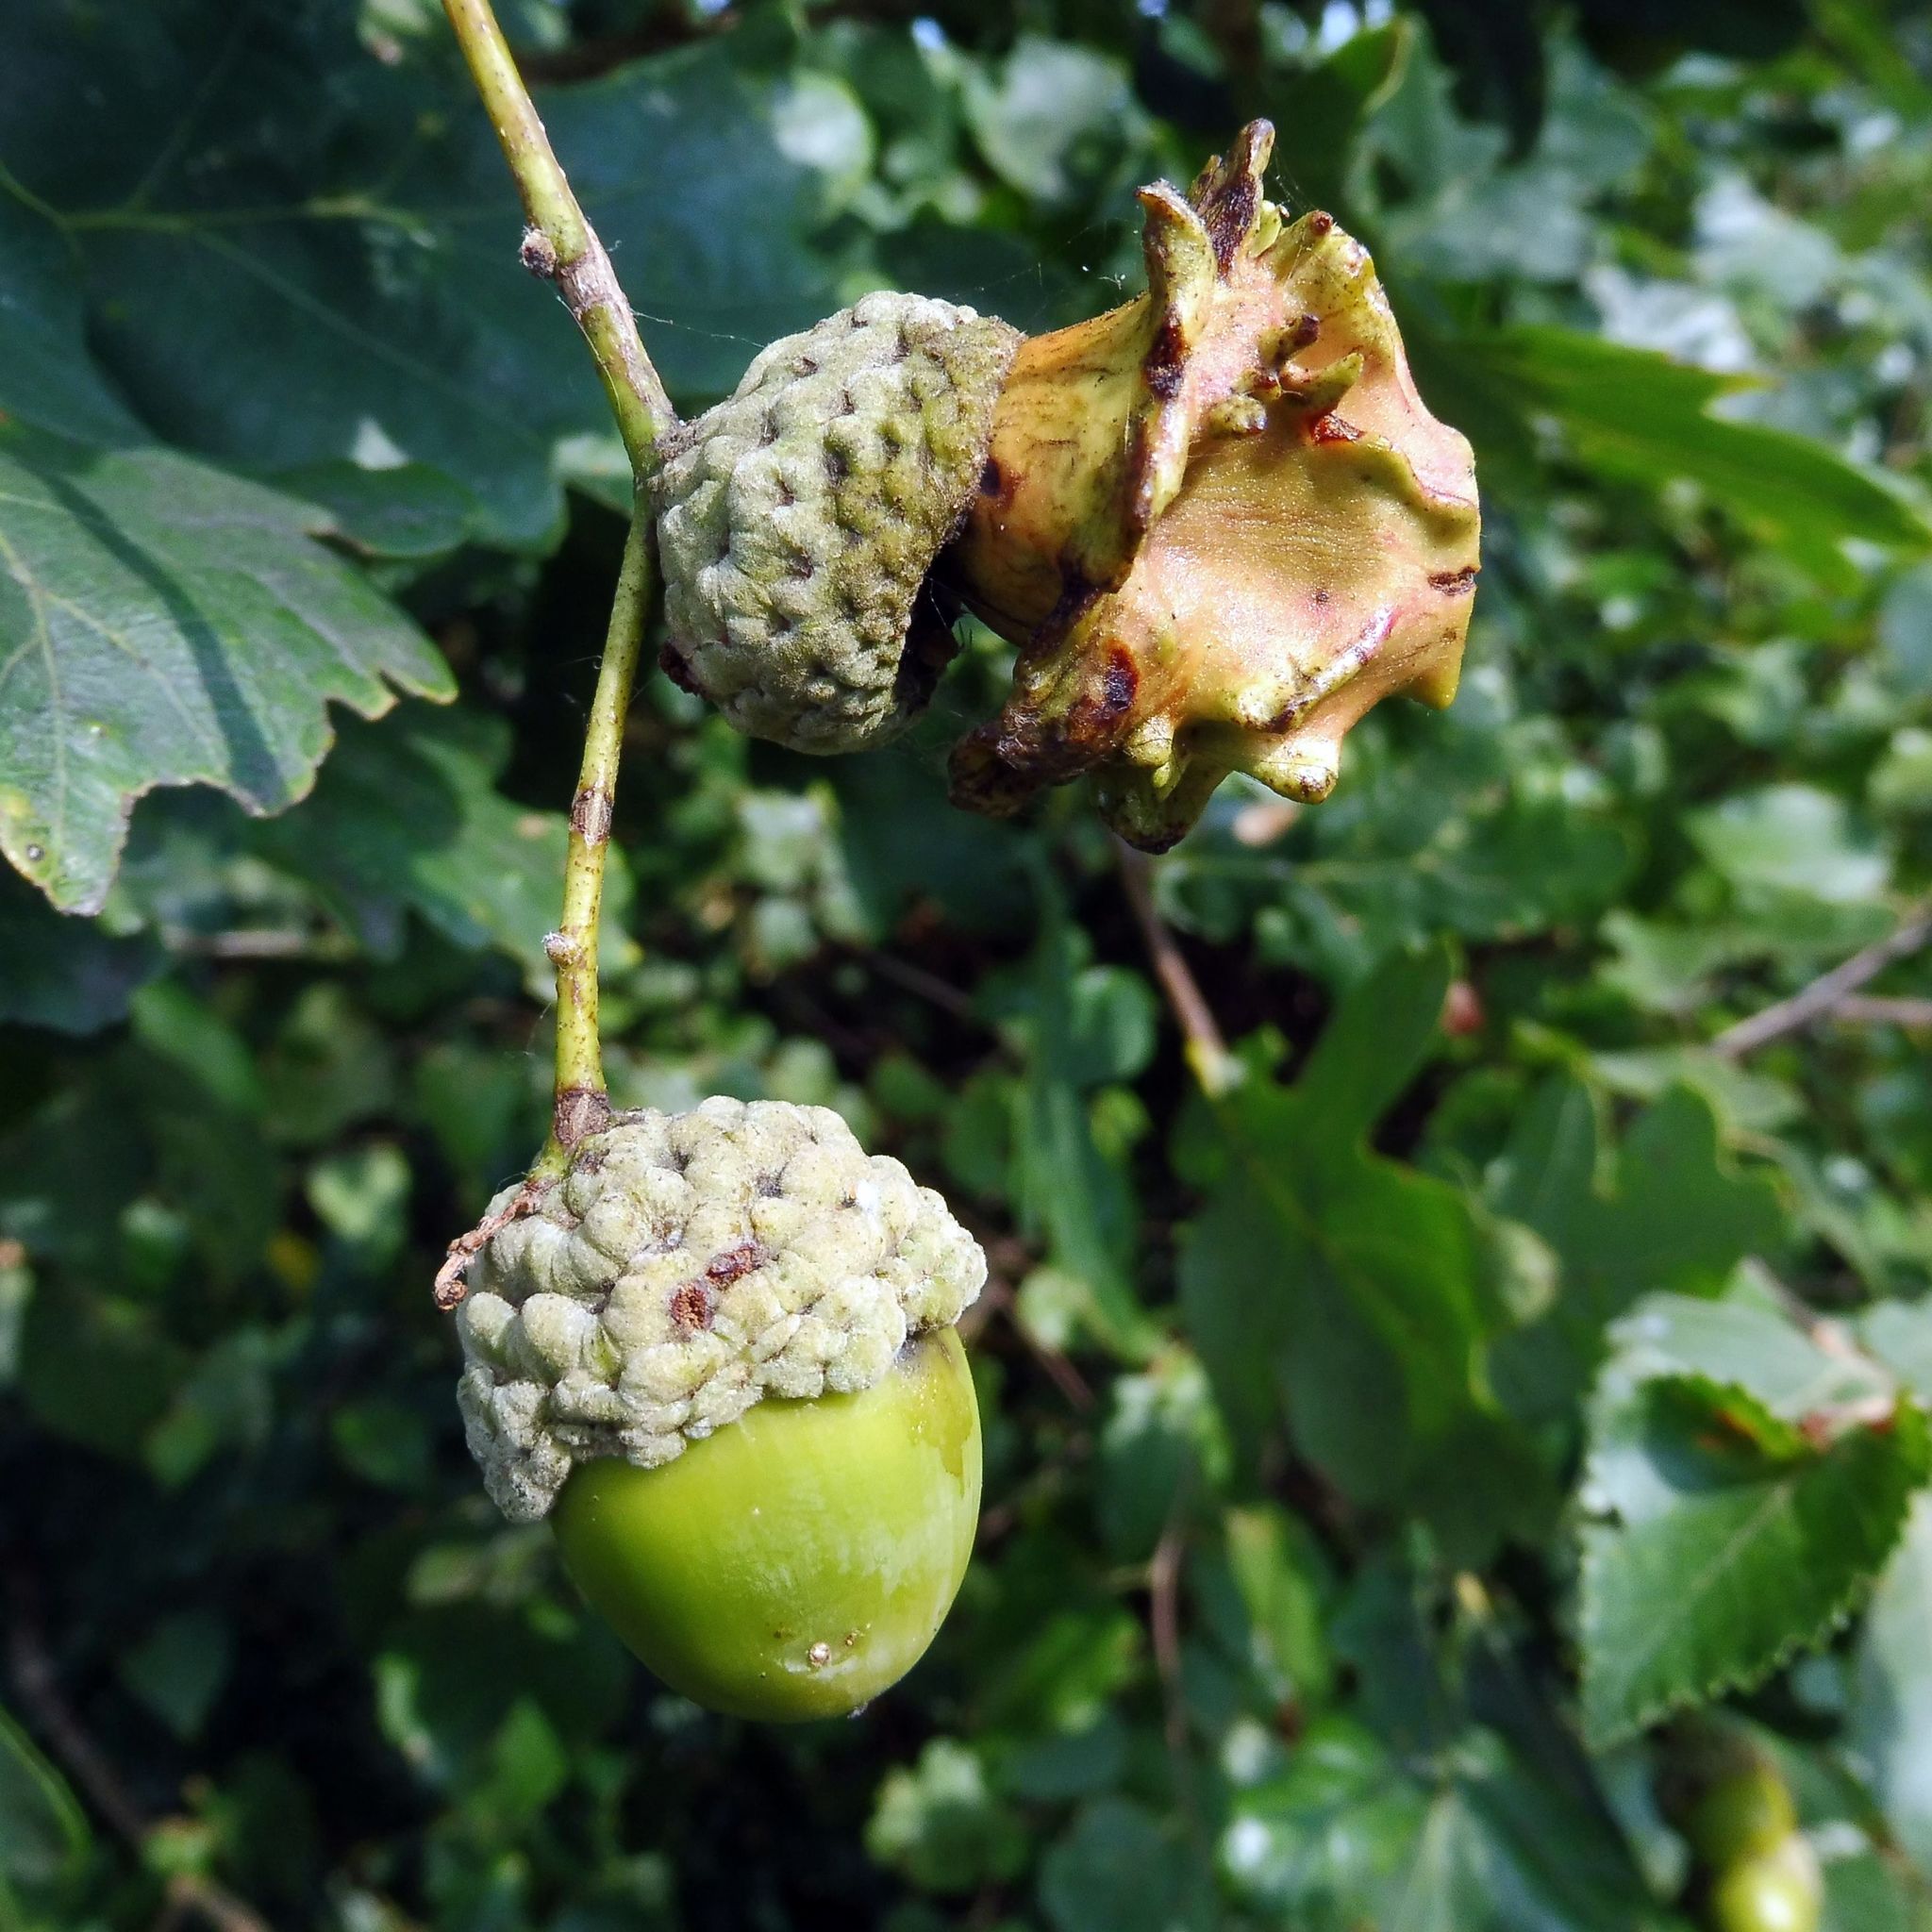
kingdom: Animalia
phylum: Arthropoda
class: Insecta
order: Hymenoptera
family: Cynipidae
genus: Andricus
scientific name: Andricus quercuscalicis
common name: Knopper gall
